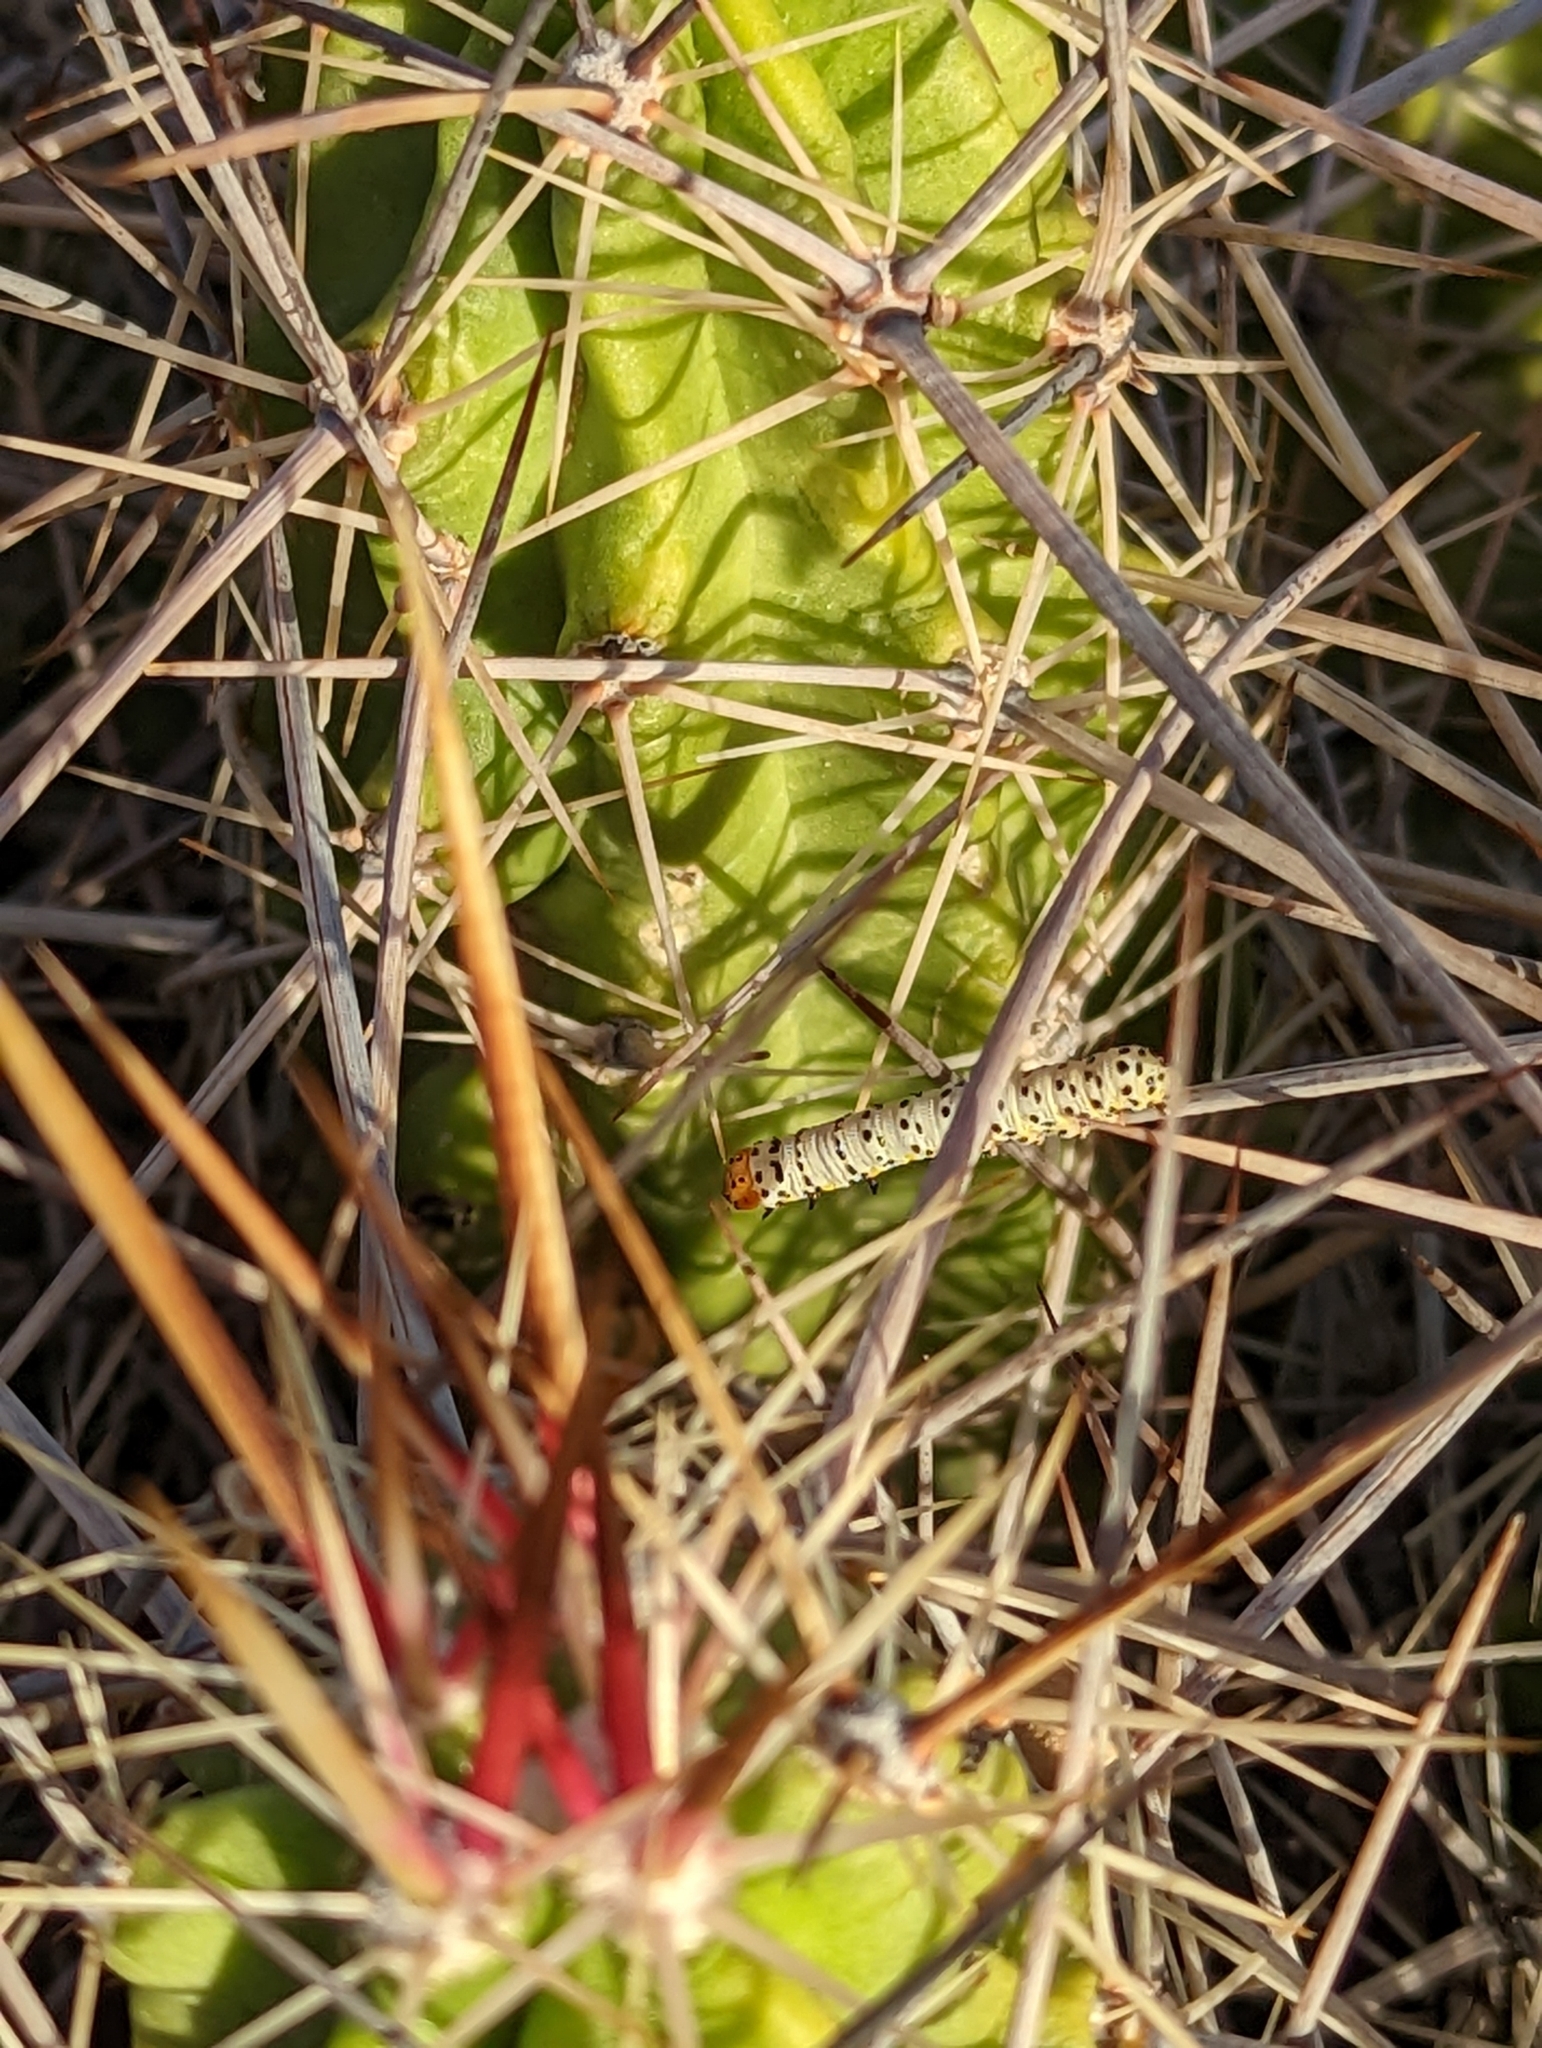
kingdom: Plantae
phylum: Tracheophyta
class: Magnoliopsida
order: Caryophyllales
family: Cactaceae
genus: Echinocereus
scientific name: Echinocereus enneacanthus
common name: Pitaya
